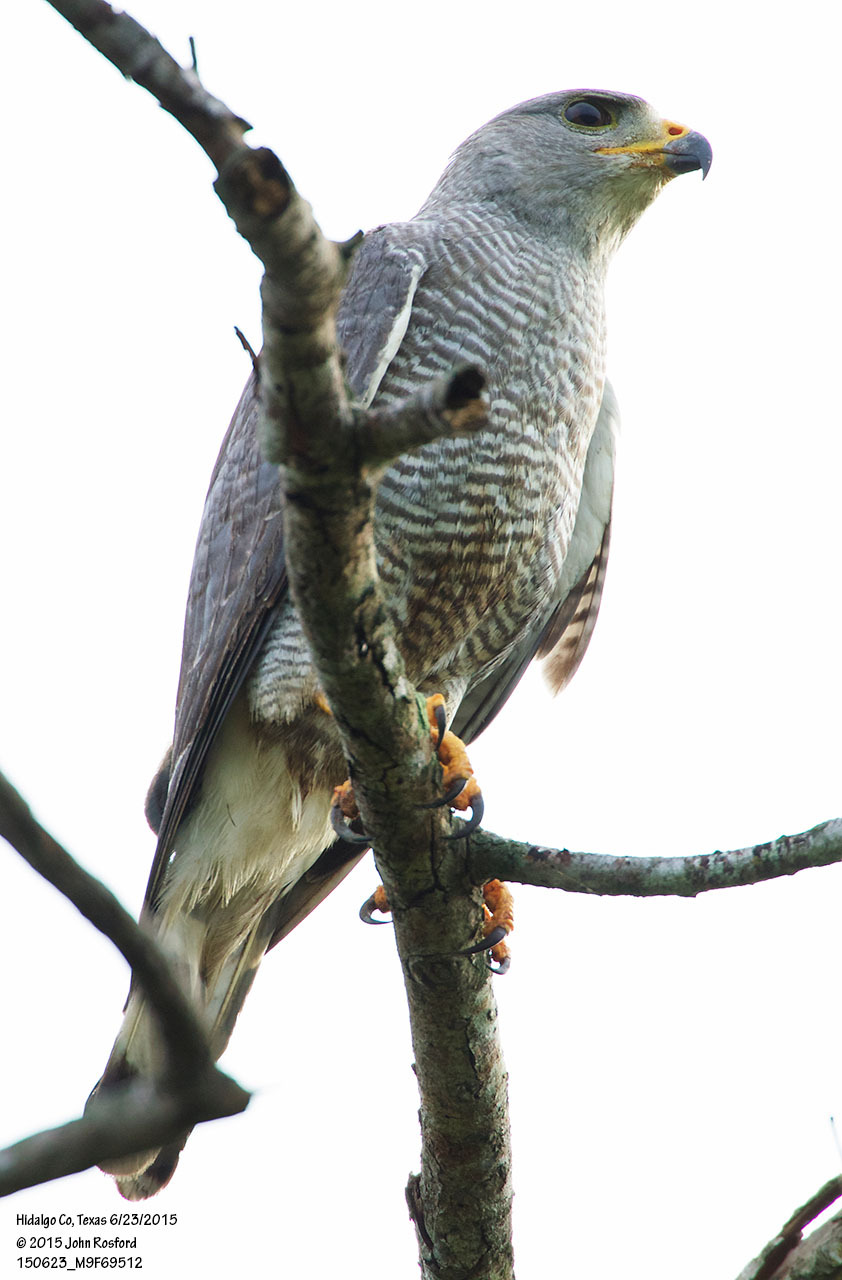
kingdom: Animalia
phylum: Chordata
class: Aves
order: Accipitriformes
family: Accipitridae
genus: Buteo
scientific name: Buteo nitidus
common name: Grey-lined hawk
